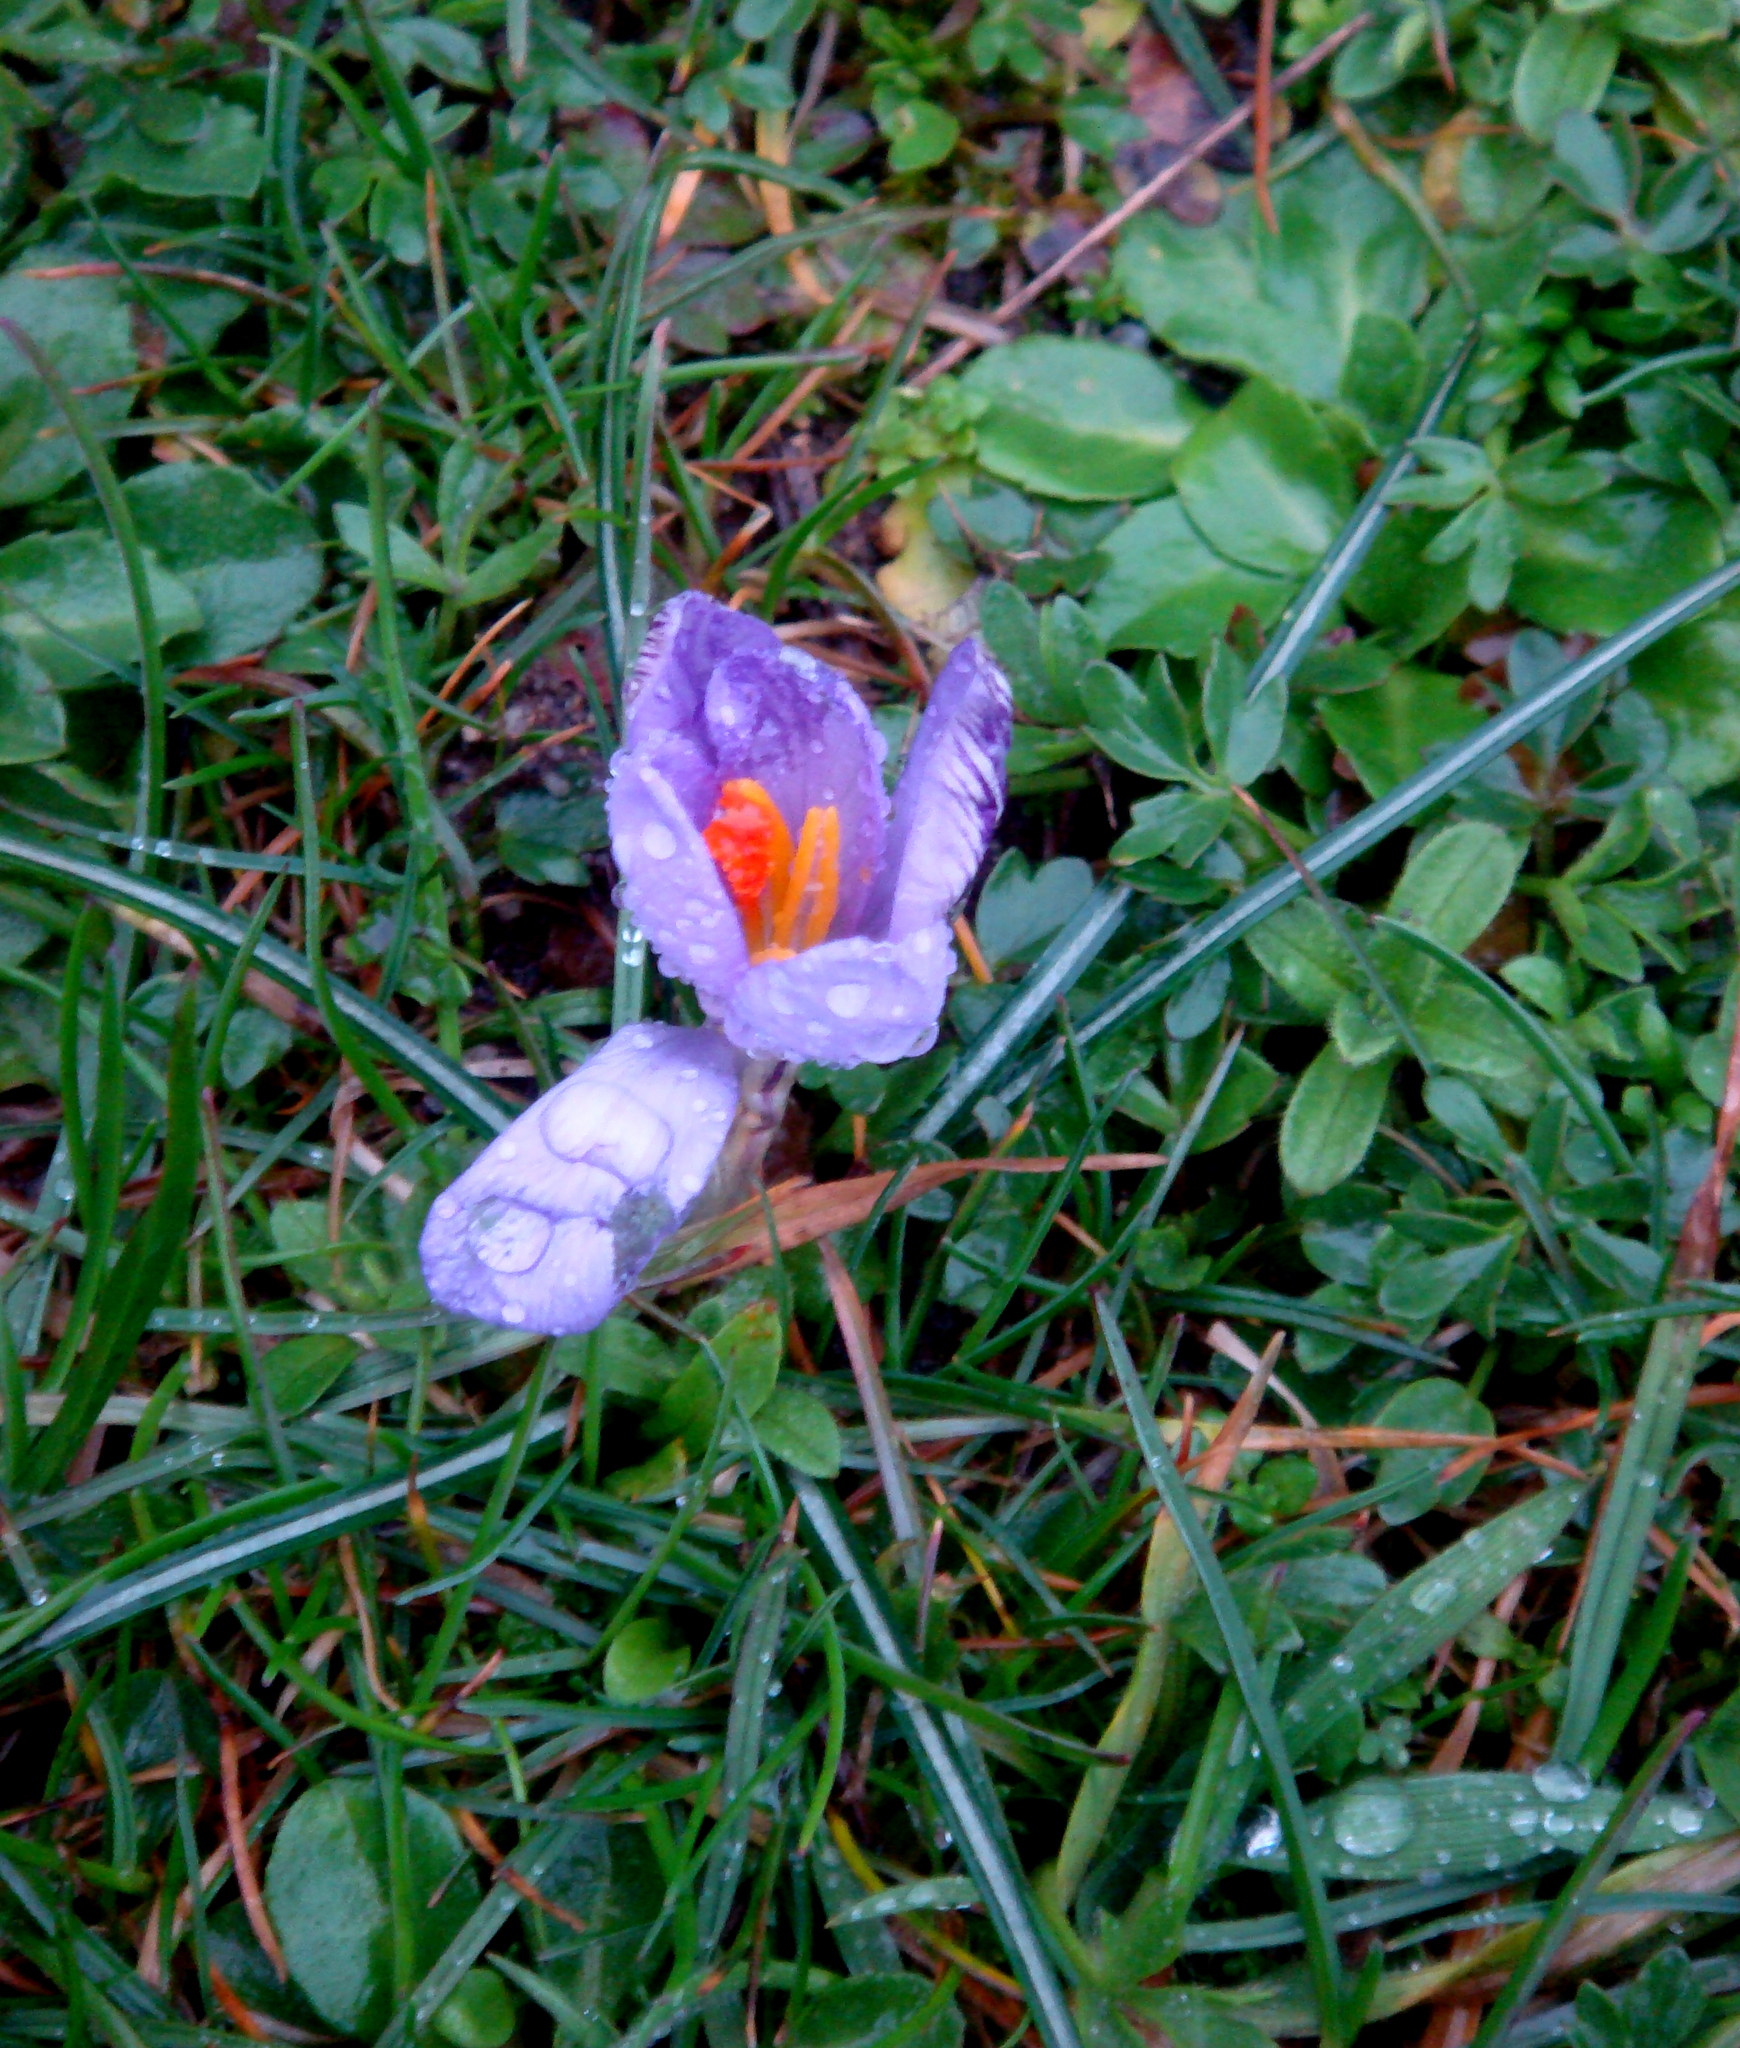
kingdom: Plantae
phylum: Tracheophyta
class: Liliopsida
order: Asparagales
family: Iridaceae
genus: Crocus
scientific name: Crocus minimus
